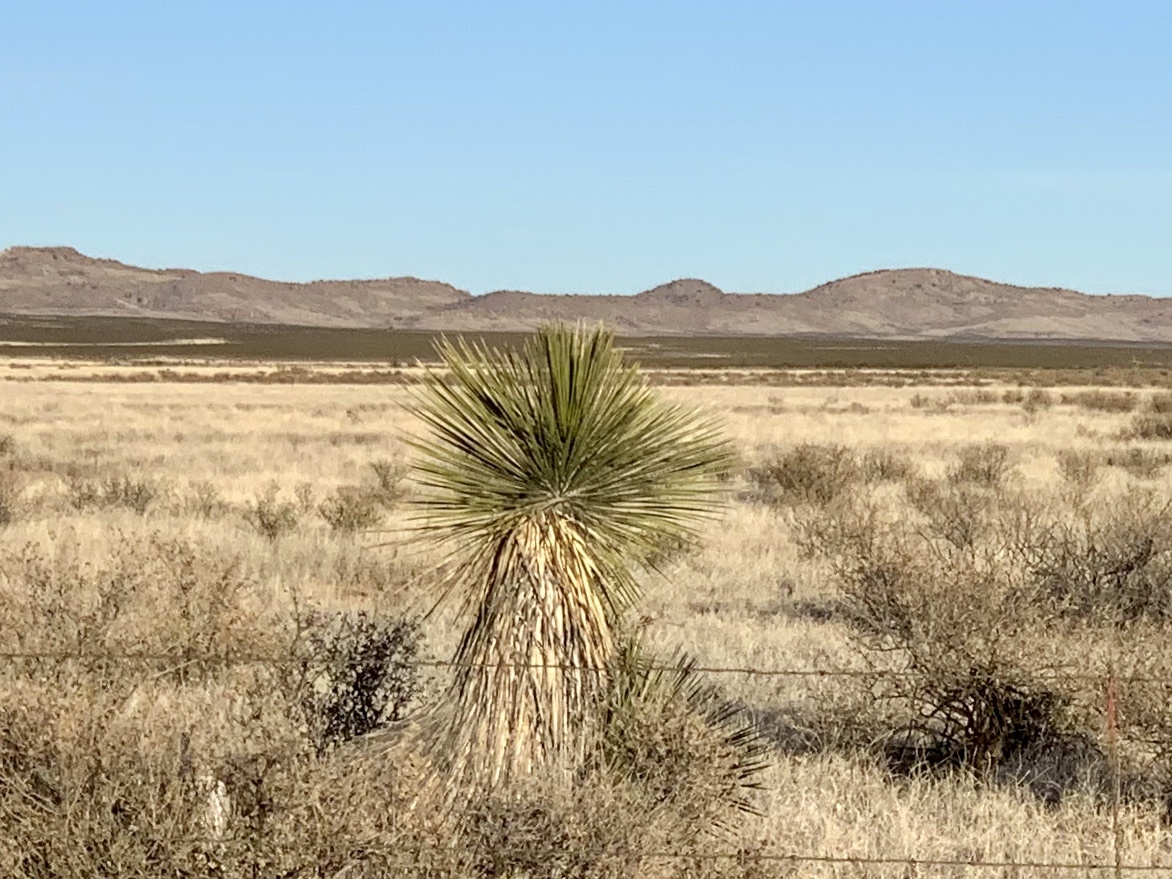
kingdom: Plantae
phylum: Tracheophyta
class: Liliopsida
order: Asparagales
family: Asparagaceae
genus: Yucca
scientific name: Yucca elata
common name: Palmella
